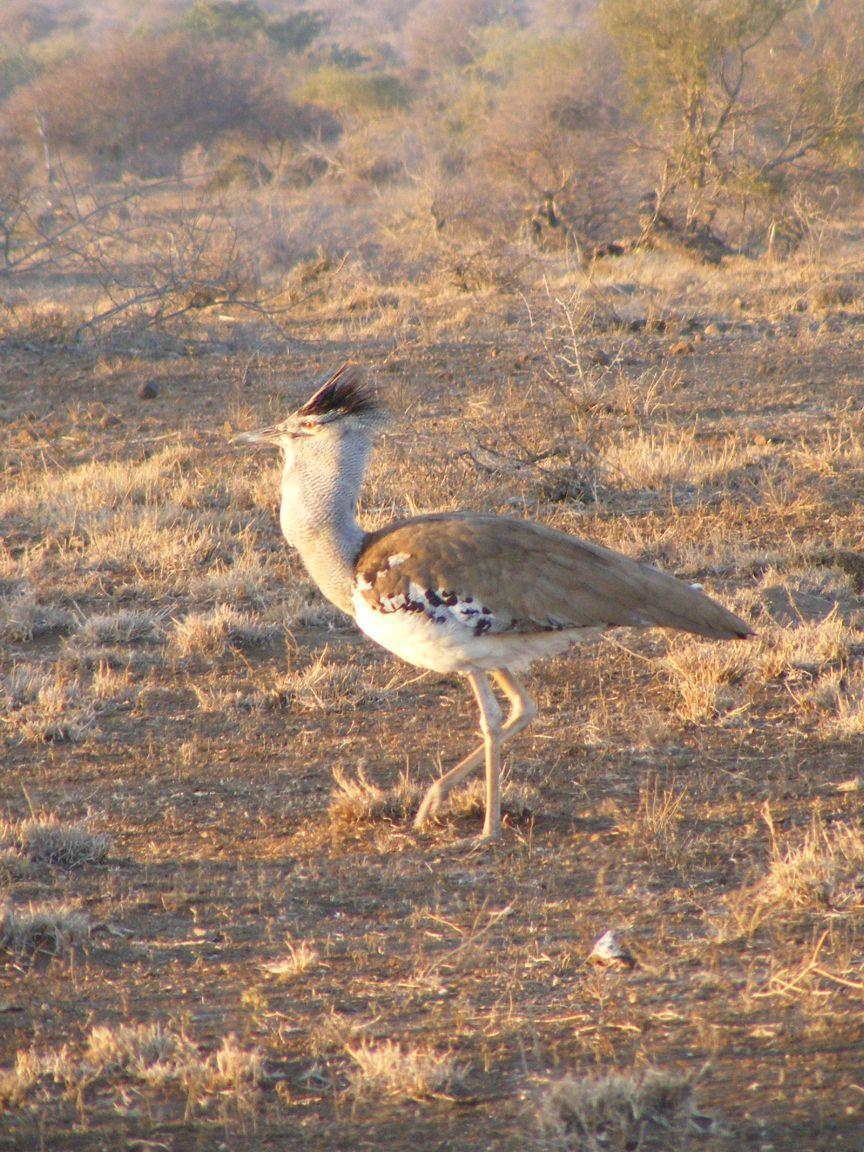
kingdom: Animalia
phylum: Chordata
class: Aves
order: Otidiformes
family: Otididae
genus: Ardeotis
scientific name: Ardeotis kori
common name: Kori bustard
